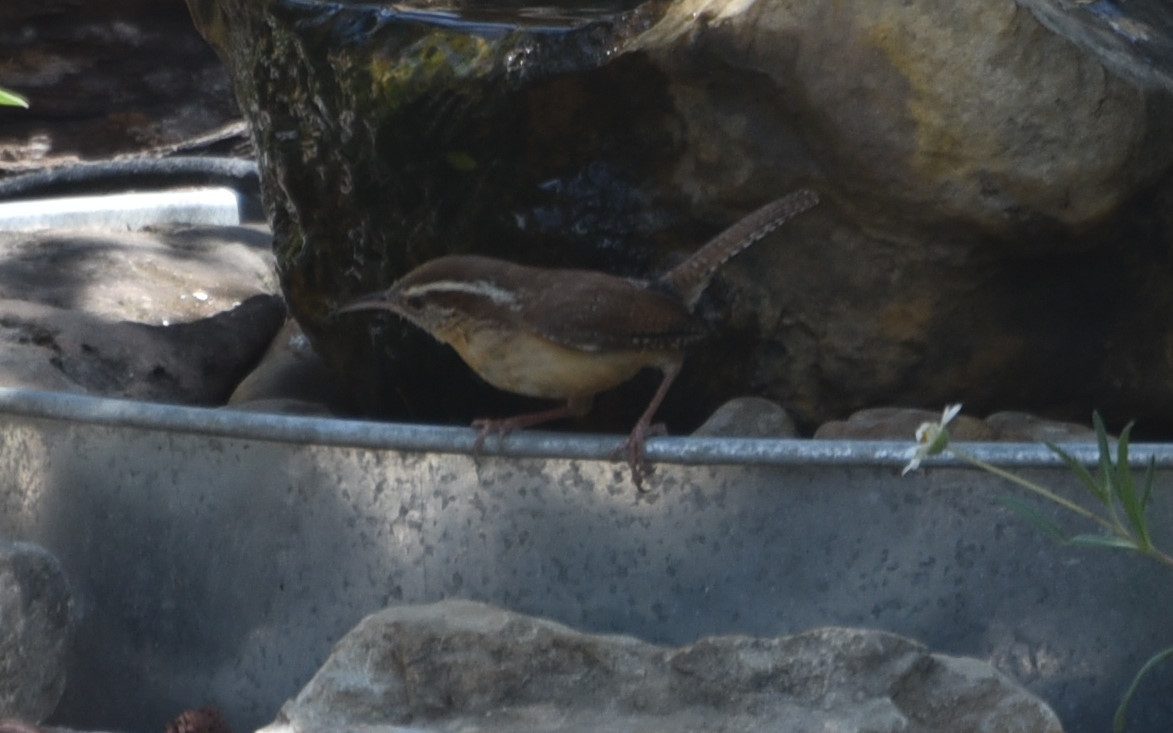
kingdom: Animalia
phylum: Chordata
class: Aves
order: Passeriformes
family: Troglodytidae
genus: Thryothorus
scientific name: Thryothorus ludovicianus
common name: Carolina wren
